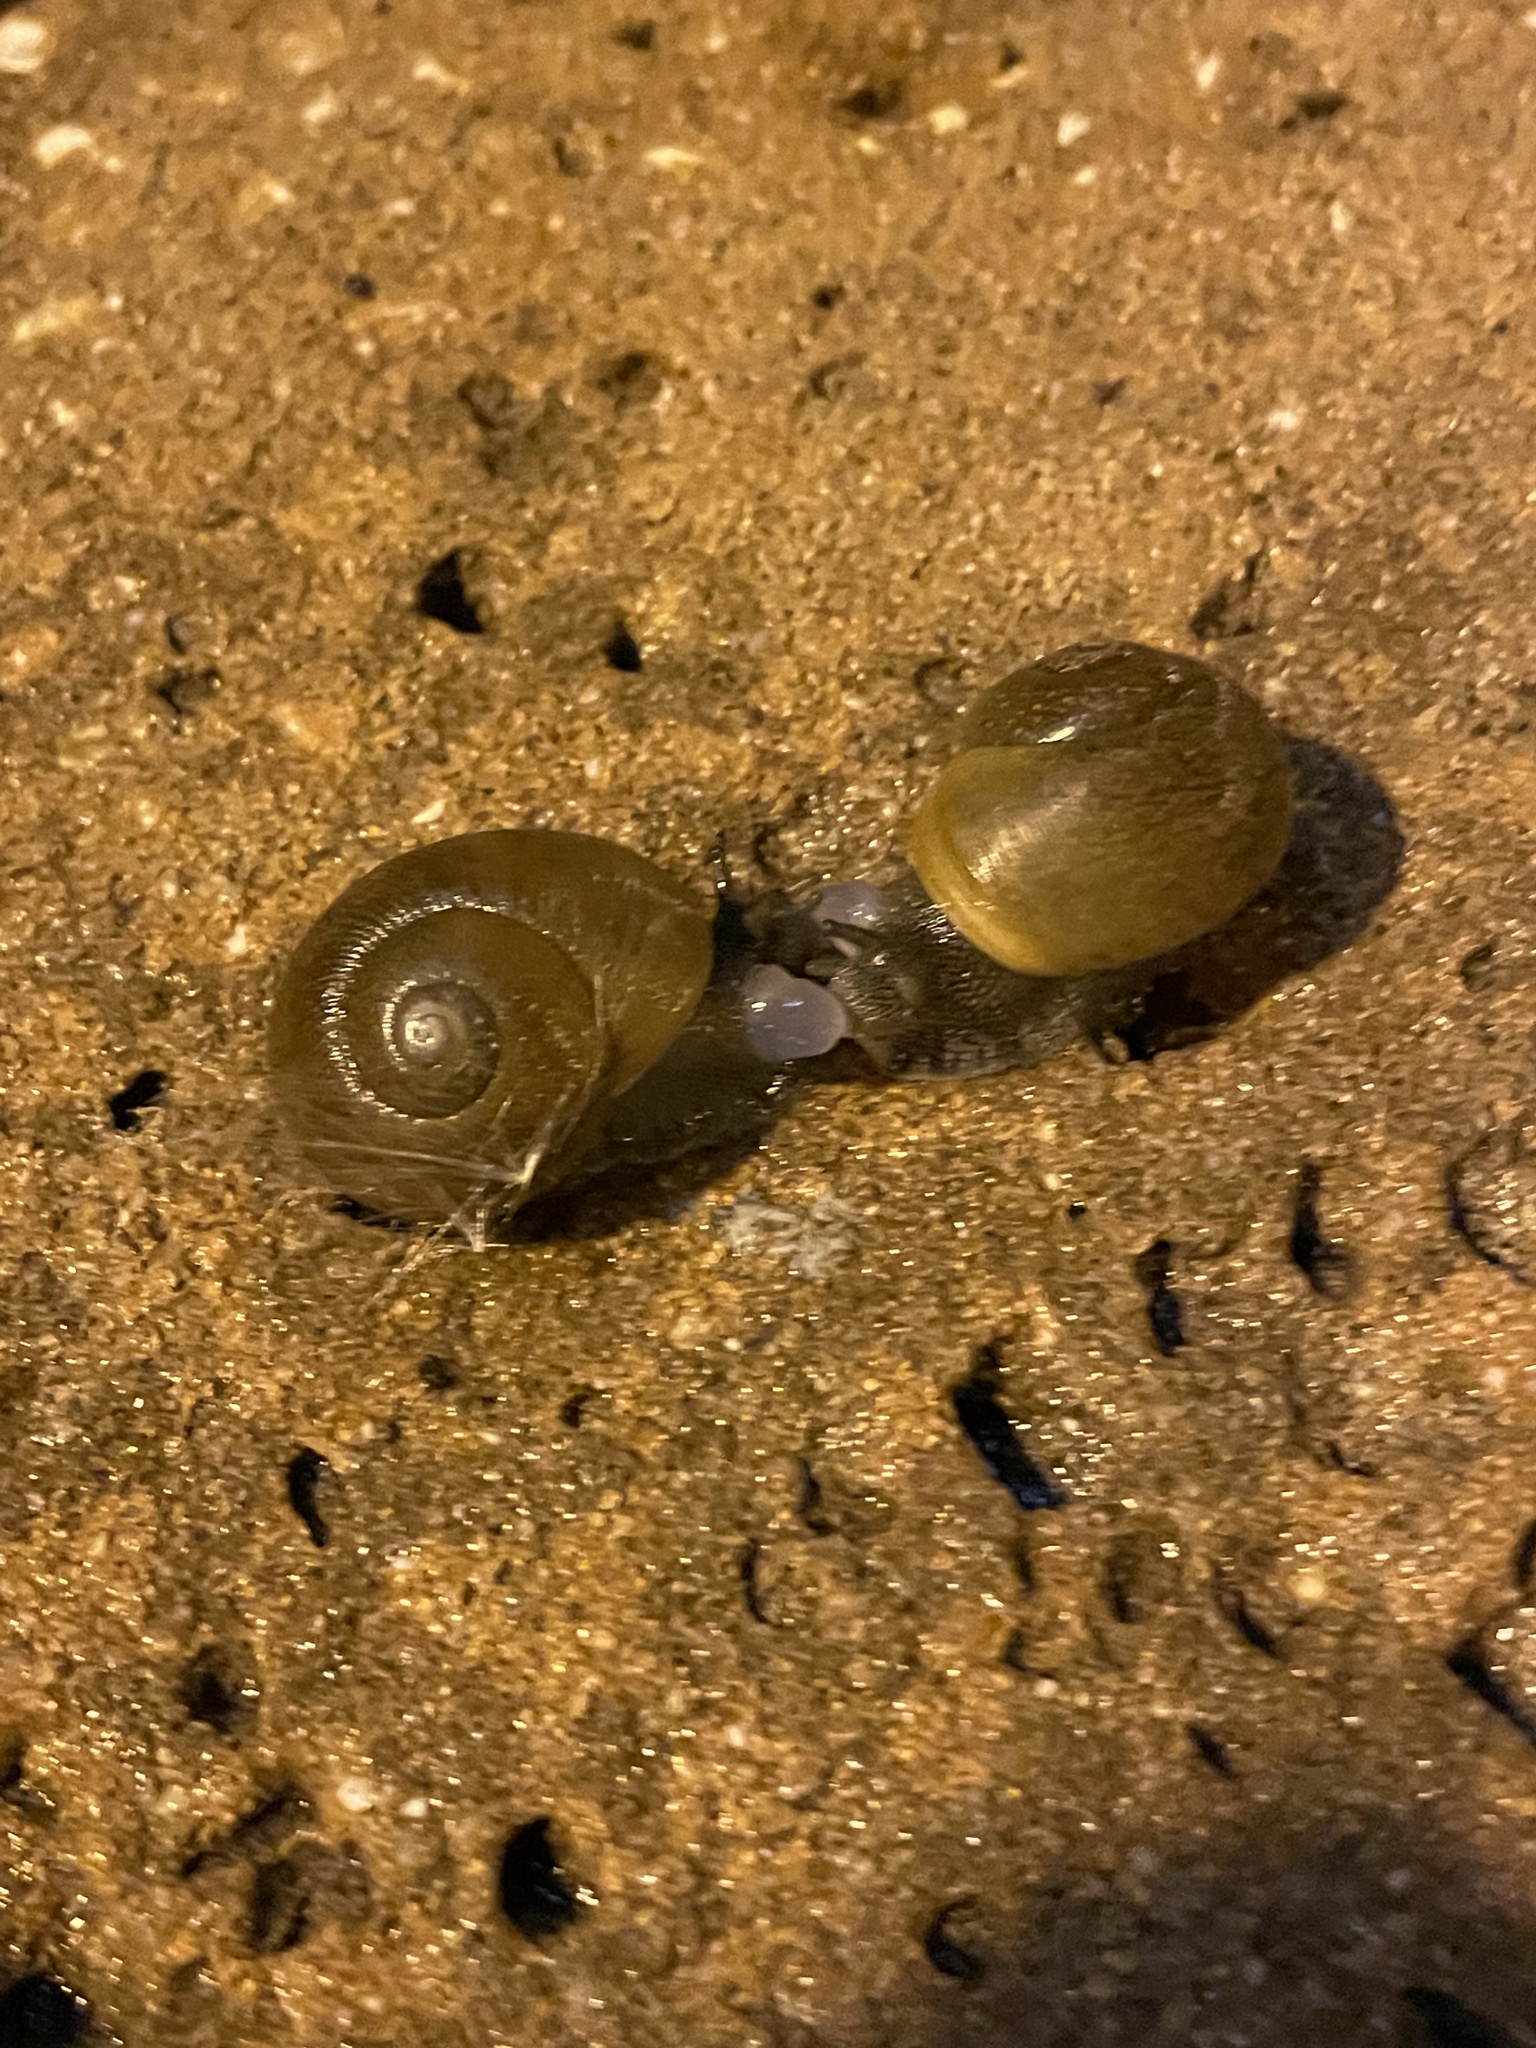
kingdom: Animalia
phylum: Mollusca
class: Gastropoda
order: Stylommatophora
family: Zachrysiidae
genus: Zachrysia
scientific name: Zachrysia provisoria
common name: Garden zachrysia
